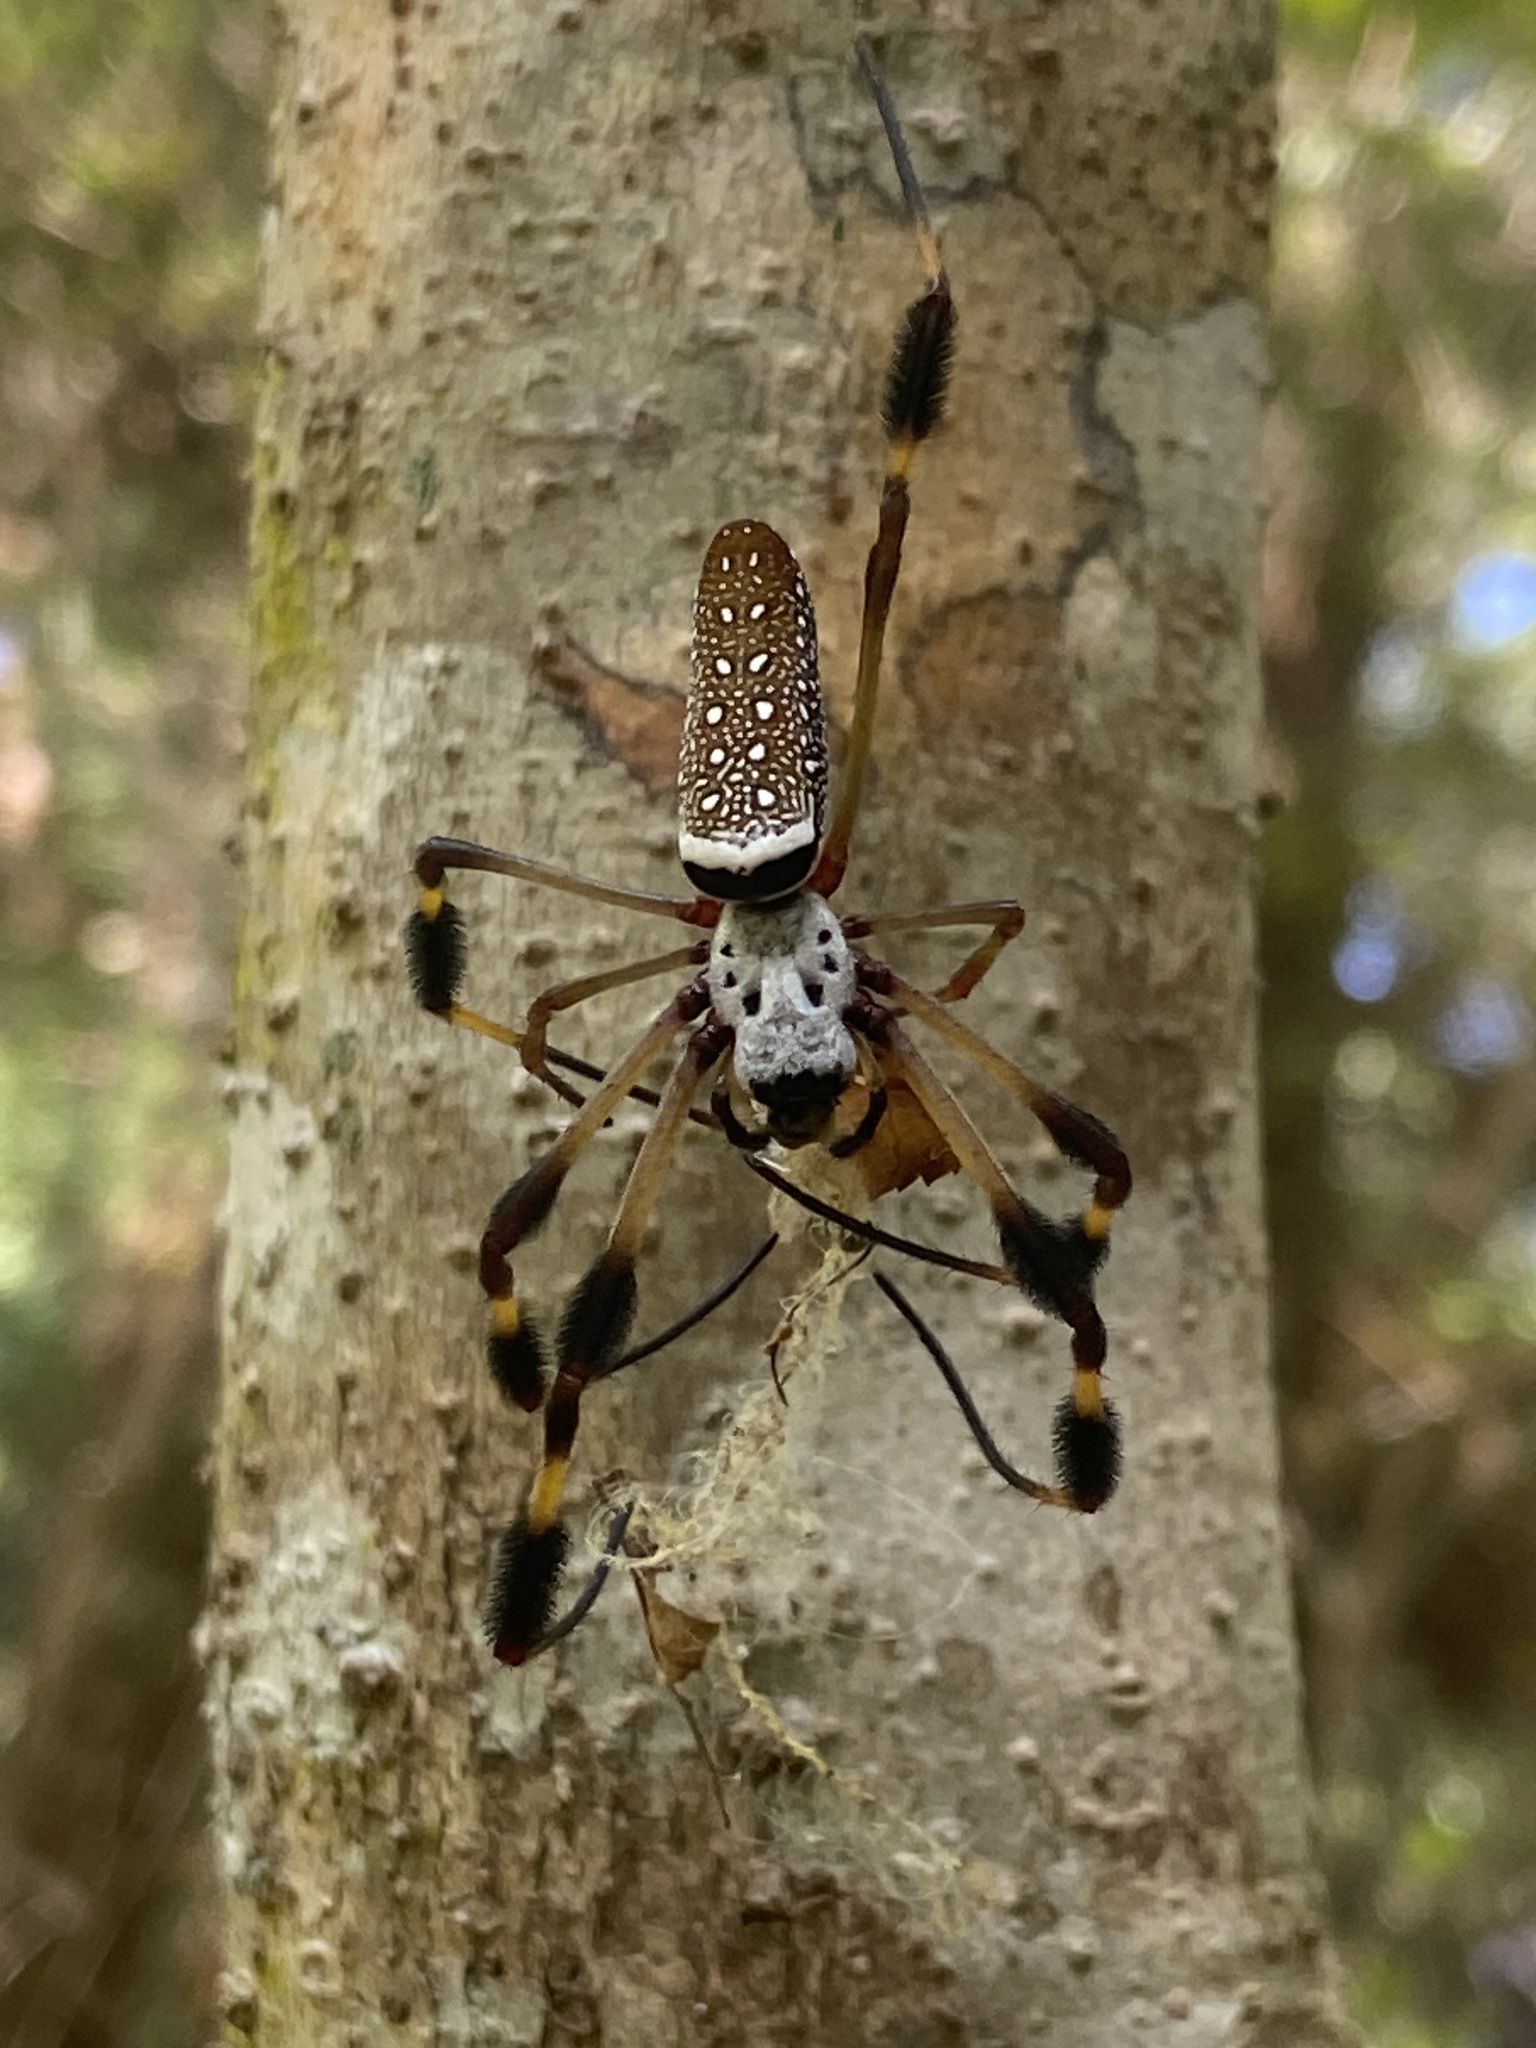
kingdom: Animalia
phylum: Arthropoda
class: Arachnida
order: Araneae
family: Araneidae
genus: Trichonephila
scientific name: Trichonephila clavipes
